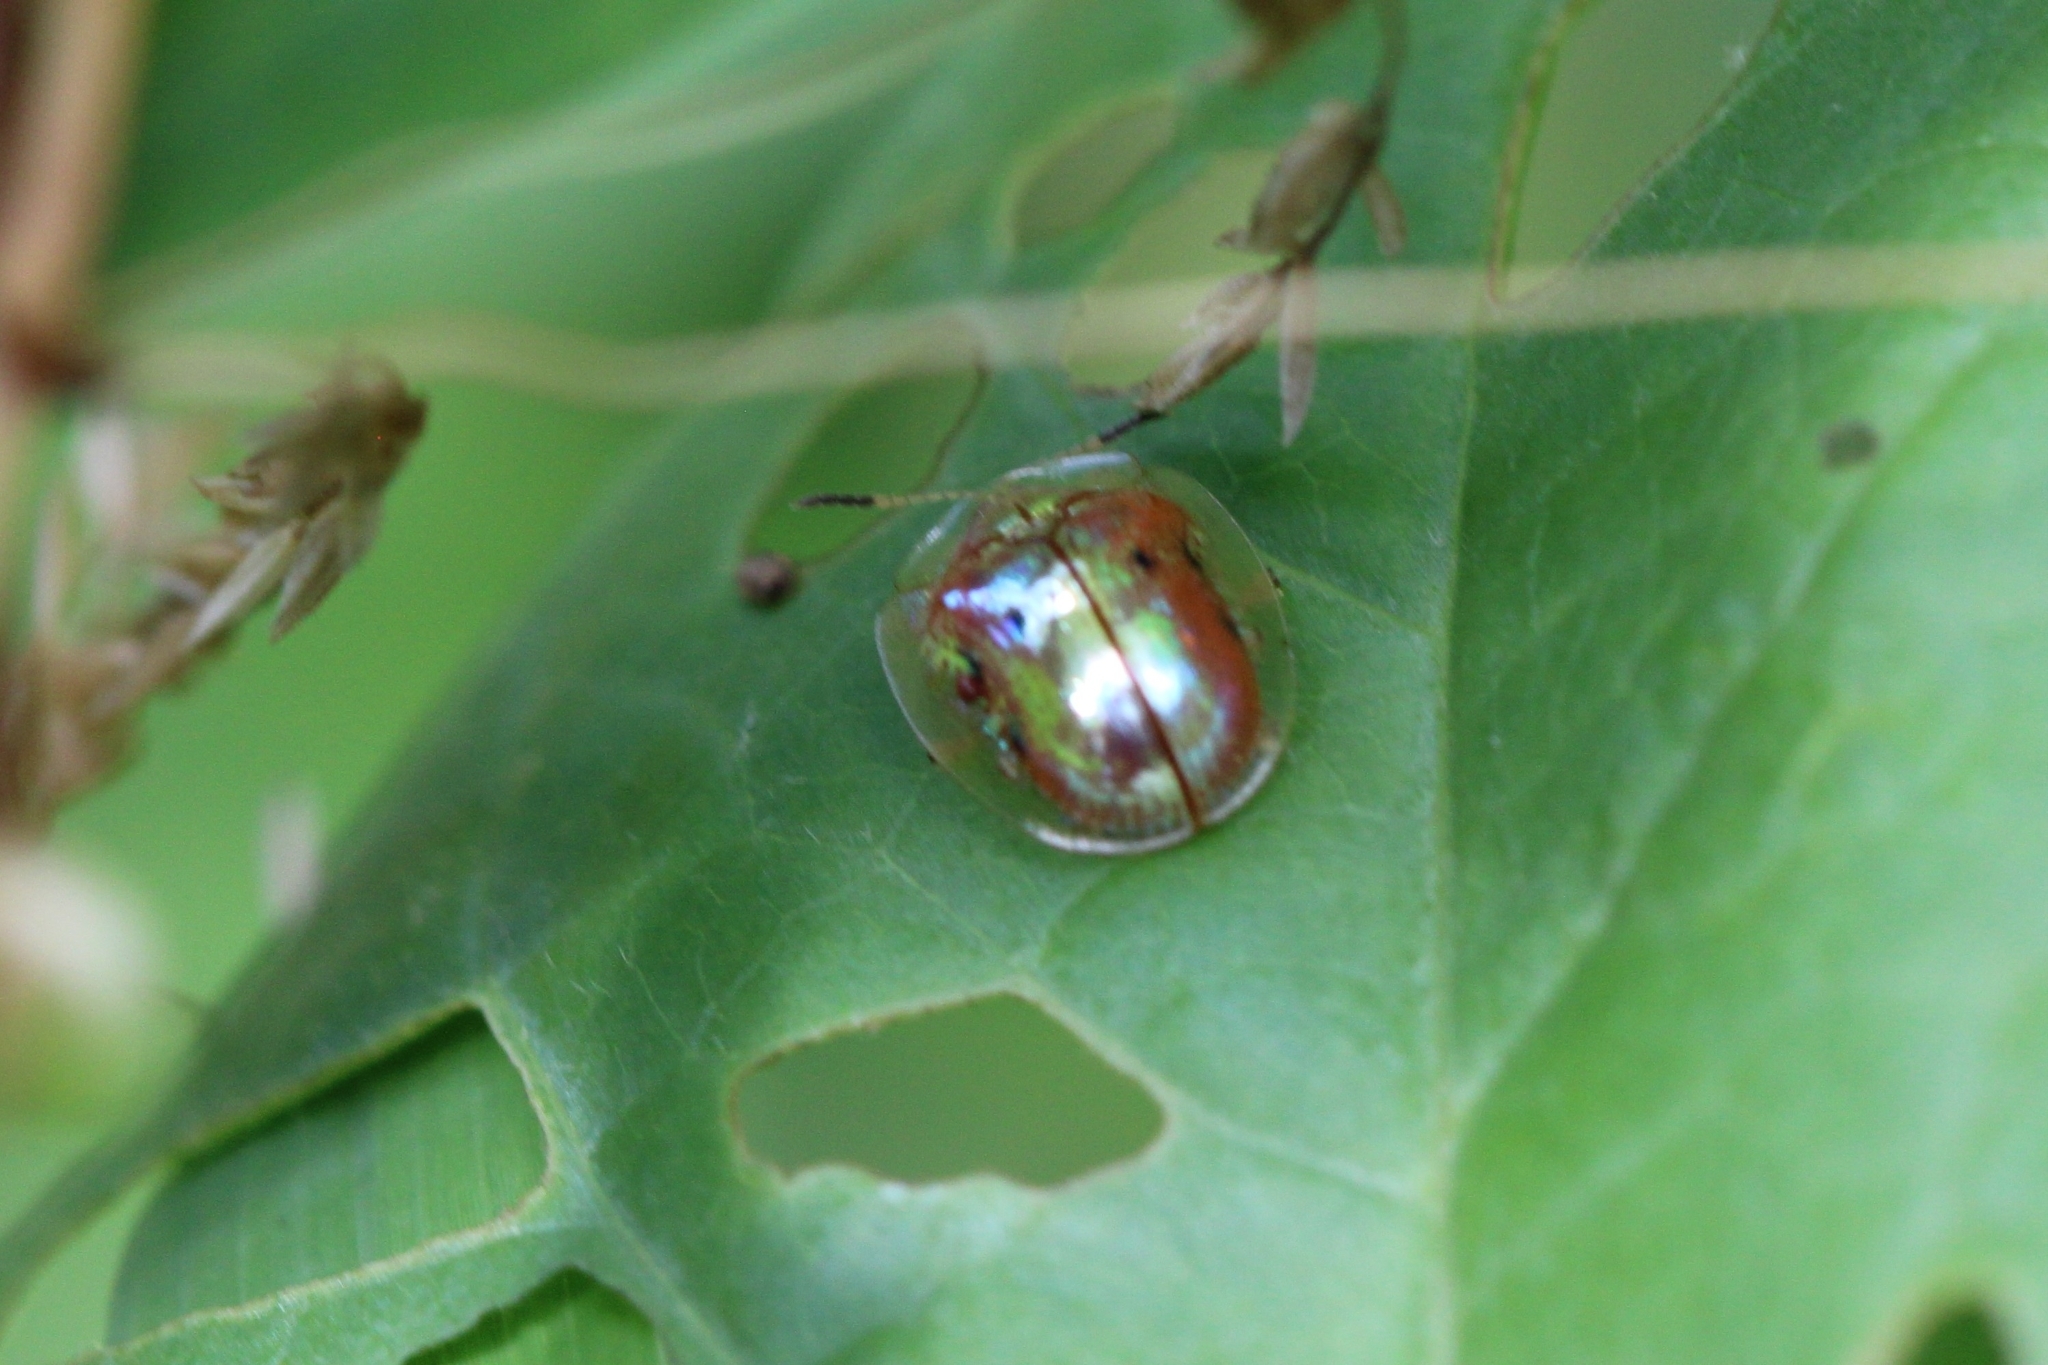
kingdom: Animalia
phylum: Arthropoda
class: Insecta
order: Coleoptera
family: Chrysomelidae
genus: Charidotella
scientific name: Charidotella sexpunctata
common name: Golden tortoise beetle
